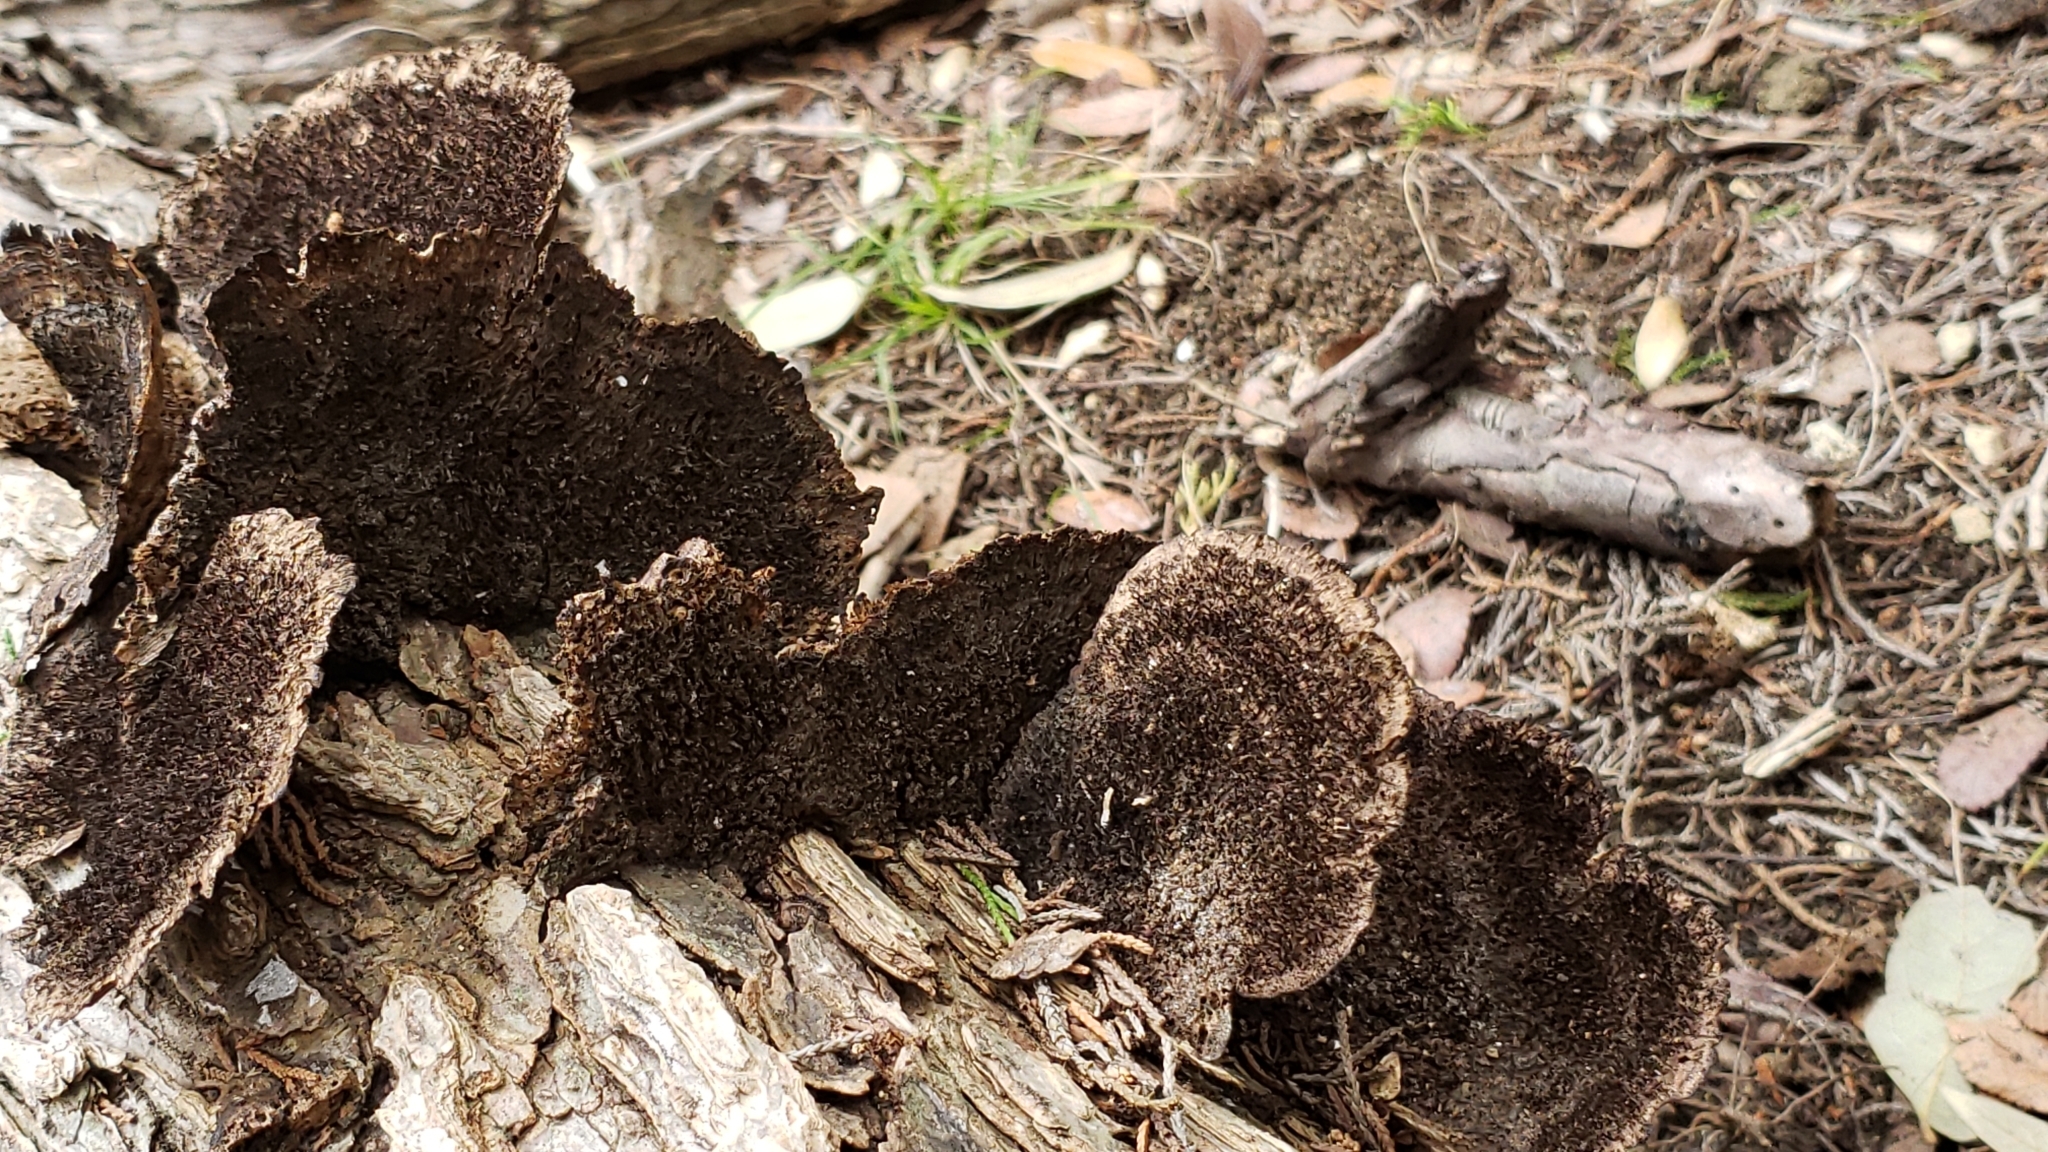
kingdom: Fungi
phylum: Basidiomycota
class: Agaricomycetes
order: Polyporales
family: Cerrenaceae
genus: Cerrena
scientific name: Cerrena hydnoides
